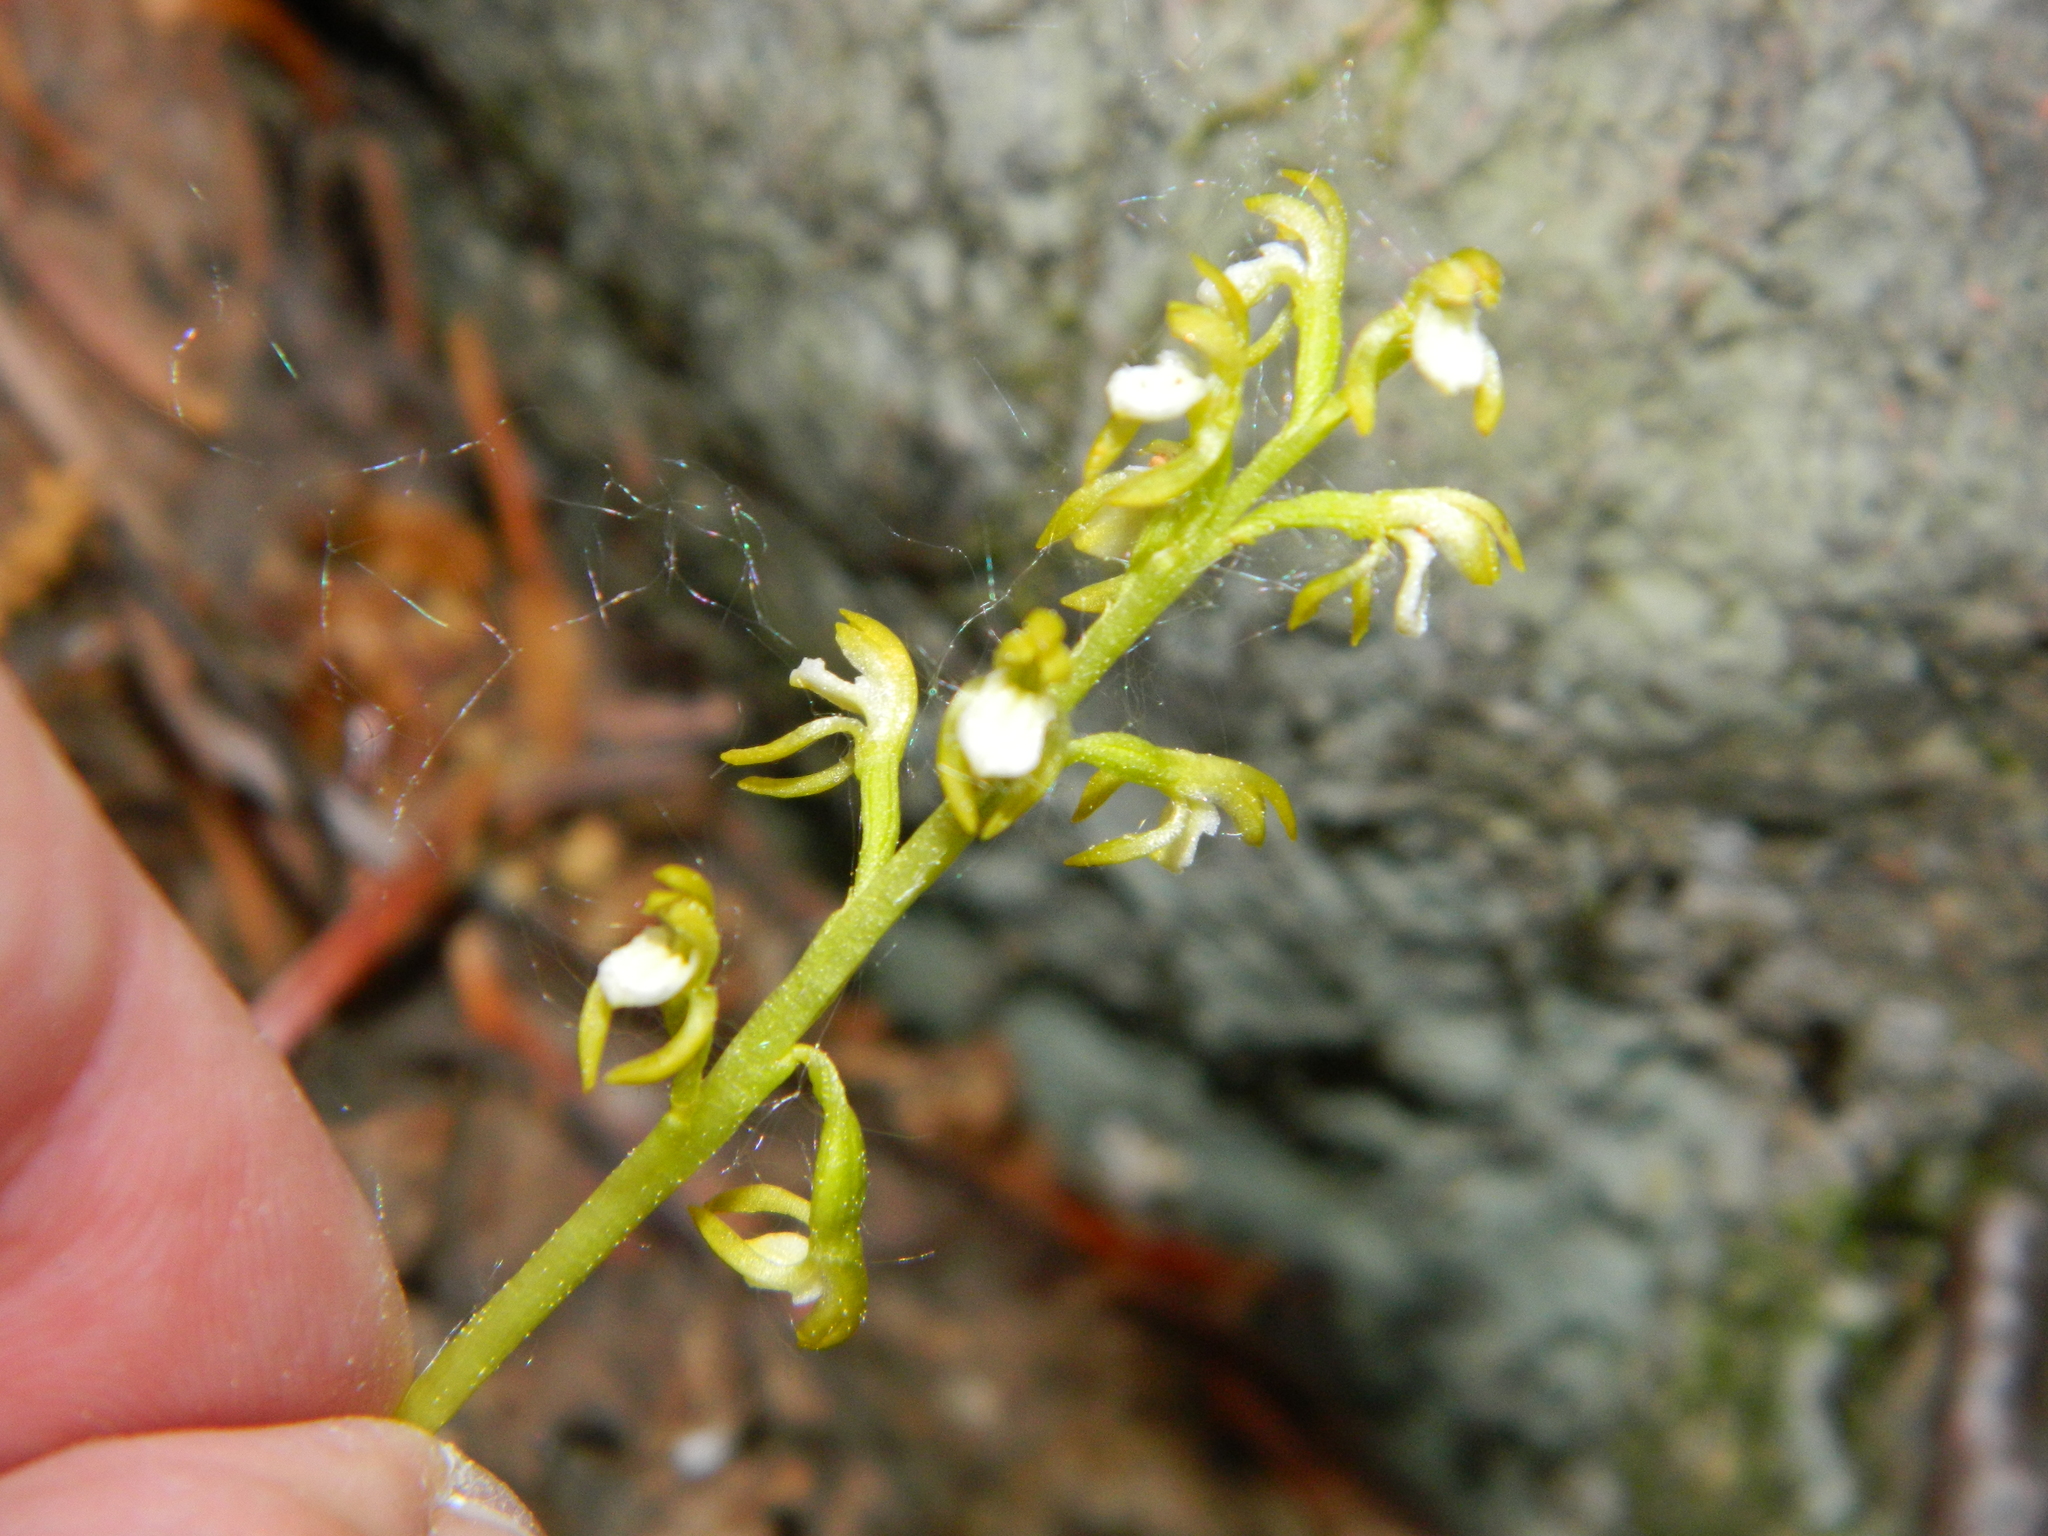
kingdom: Plantae
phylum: Tracheophyta
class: Liliopsida
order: Asparagales
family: Orchidaceae
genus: Corallorhiza
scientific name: Corallorhiza trifida
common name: Yellow coralroot
